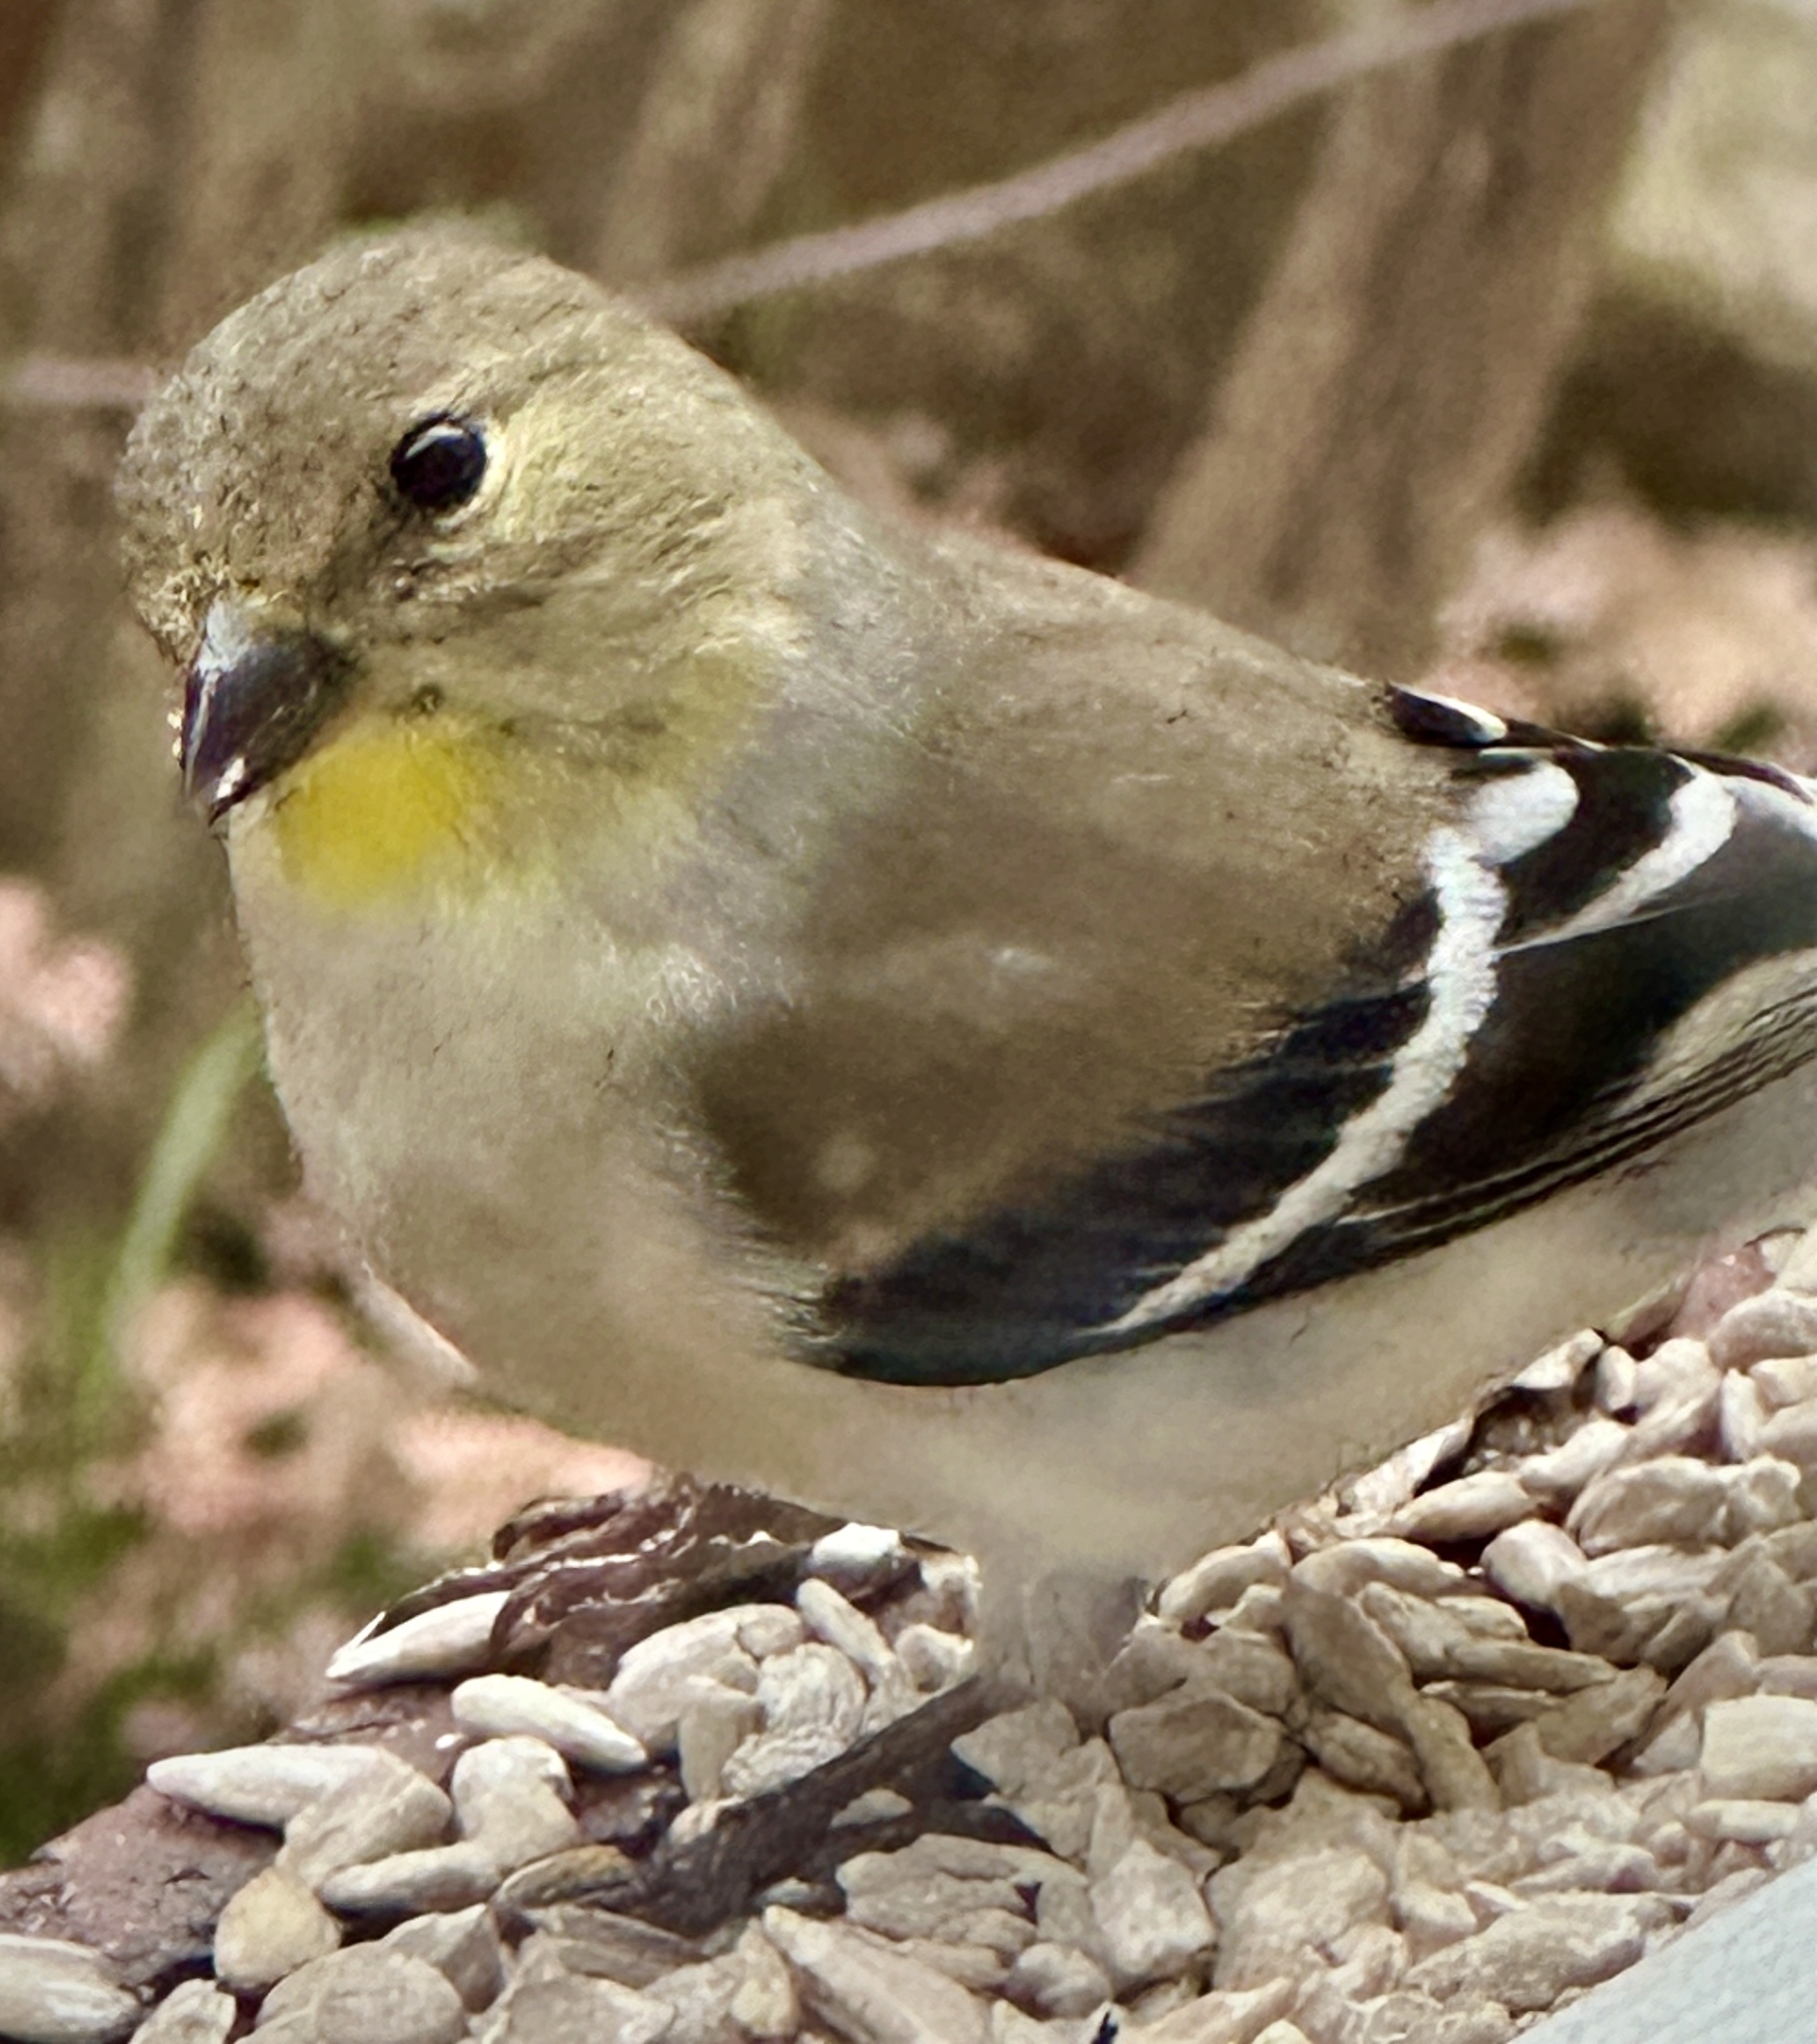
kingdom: Animalia
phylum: Chordata
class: Aves
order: Passeriformes
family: Fringillidae
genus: Spinus
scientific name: Spinus tristis
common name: American goldfinch
